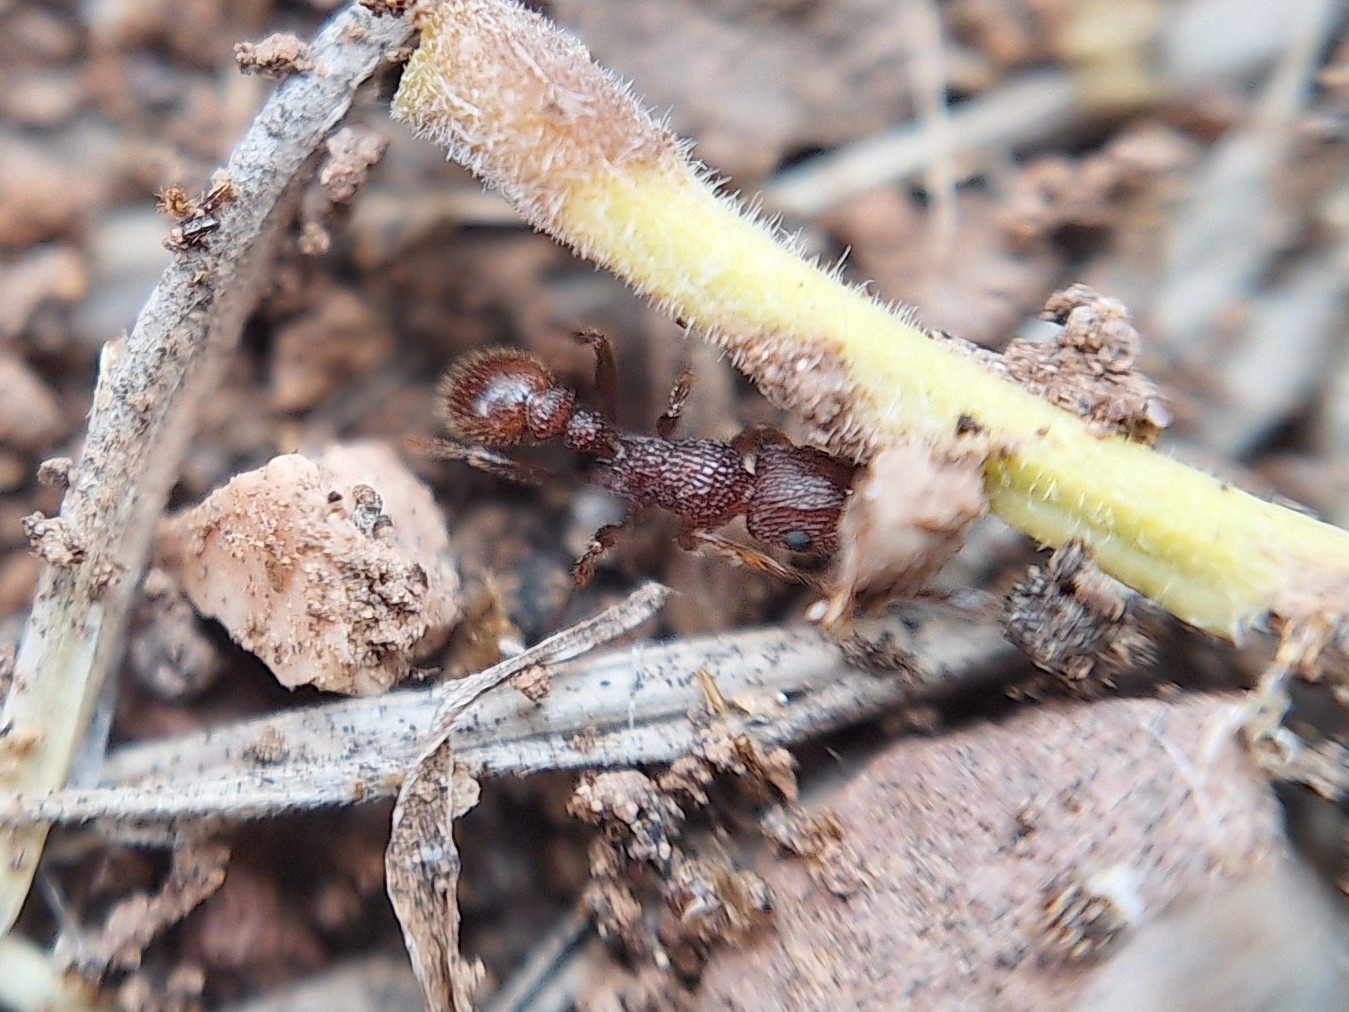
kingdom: Animalia
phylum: Arthropoda
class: Insecta
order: Hymenoptera
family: Formicidae
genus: Tetramorium
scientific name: Tetramorium hispidum
